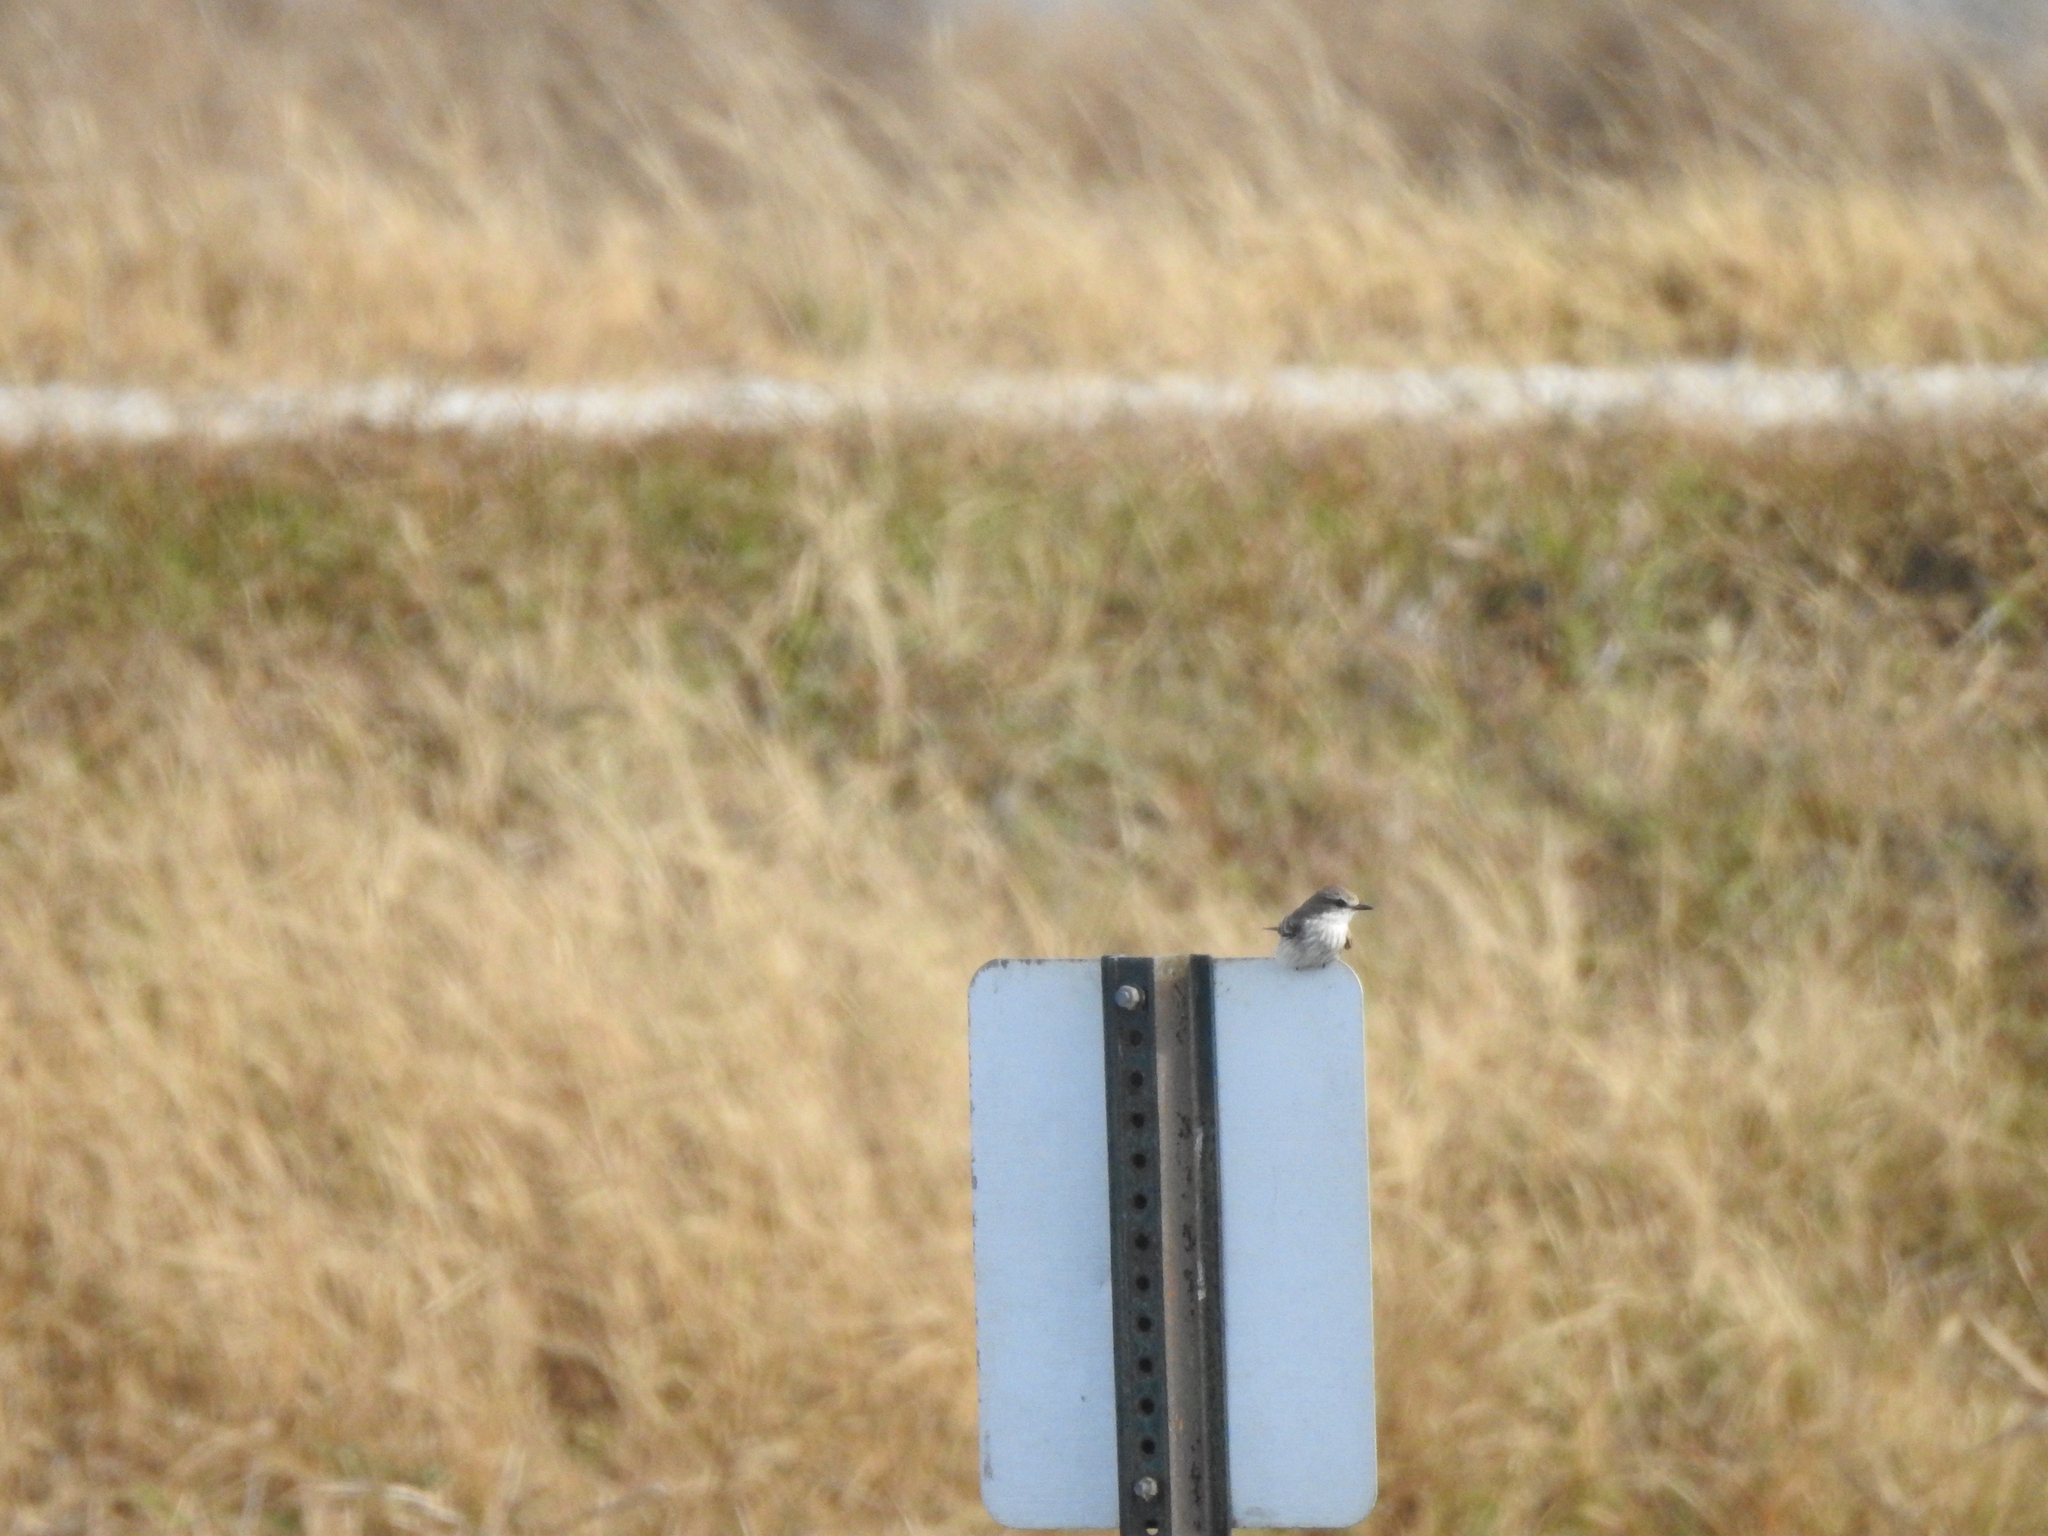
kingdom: Animalia
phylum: Chordata
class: Aves
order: Passeriformes
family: Tyrannidae
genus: Pyrocephalus
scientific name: Pyrocephalus rubinus
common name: Vermilion flycatcher
